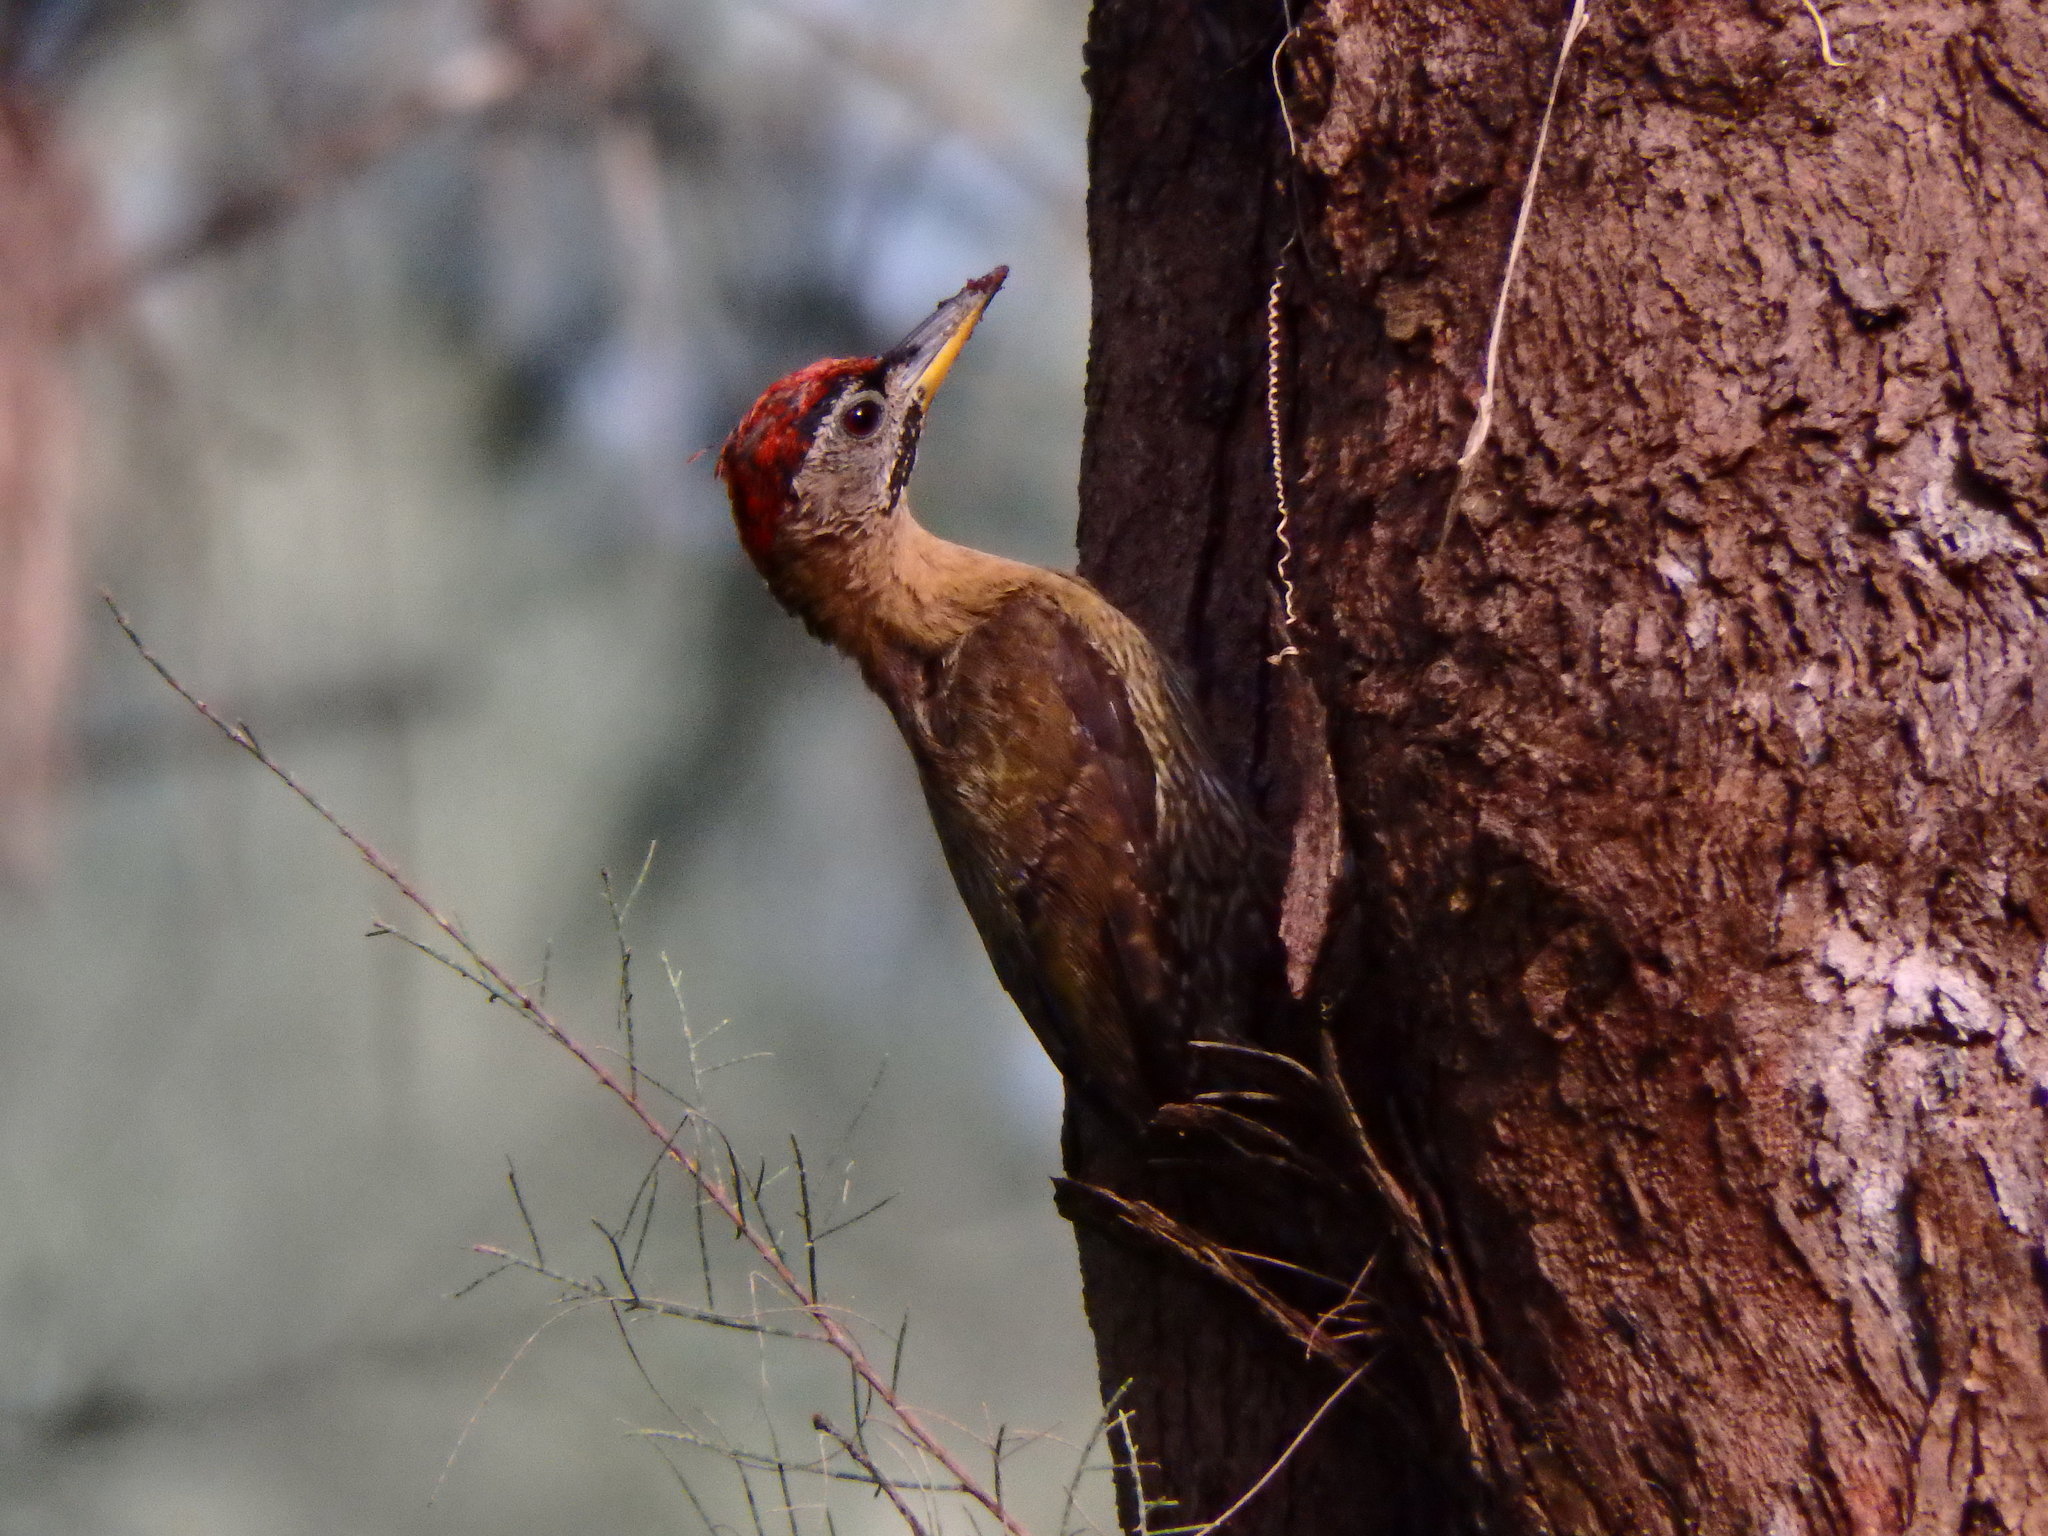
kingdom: Animalia
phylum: Chordata
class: Aves
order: Piciformes
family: Picidae
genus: Picus
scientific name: Picus vittatus
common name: Laced woodpecker
